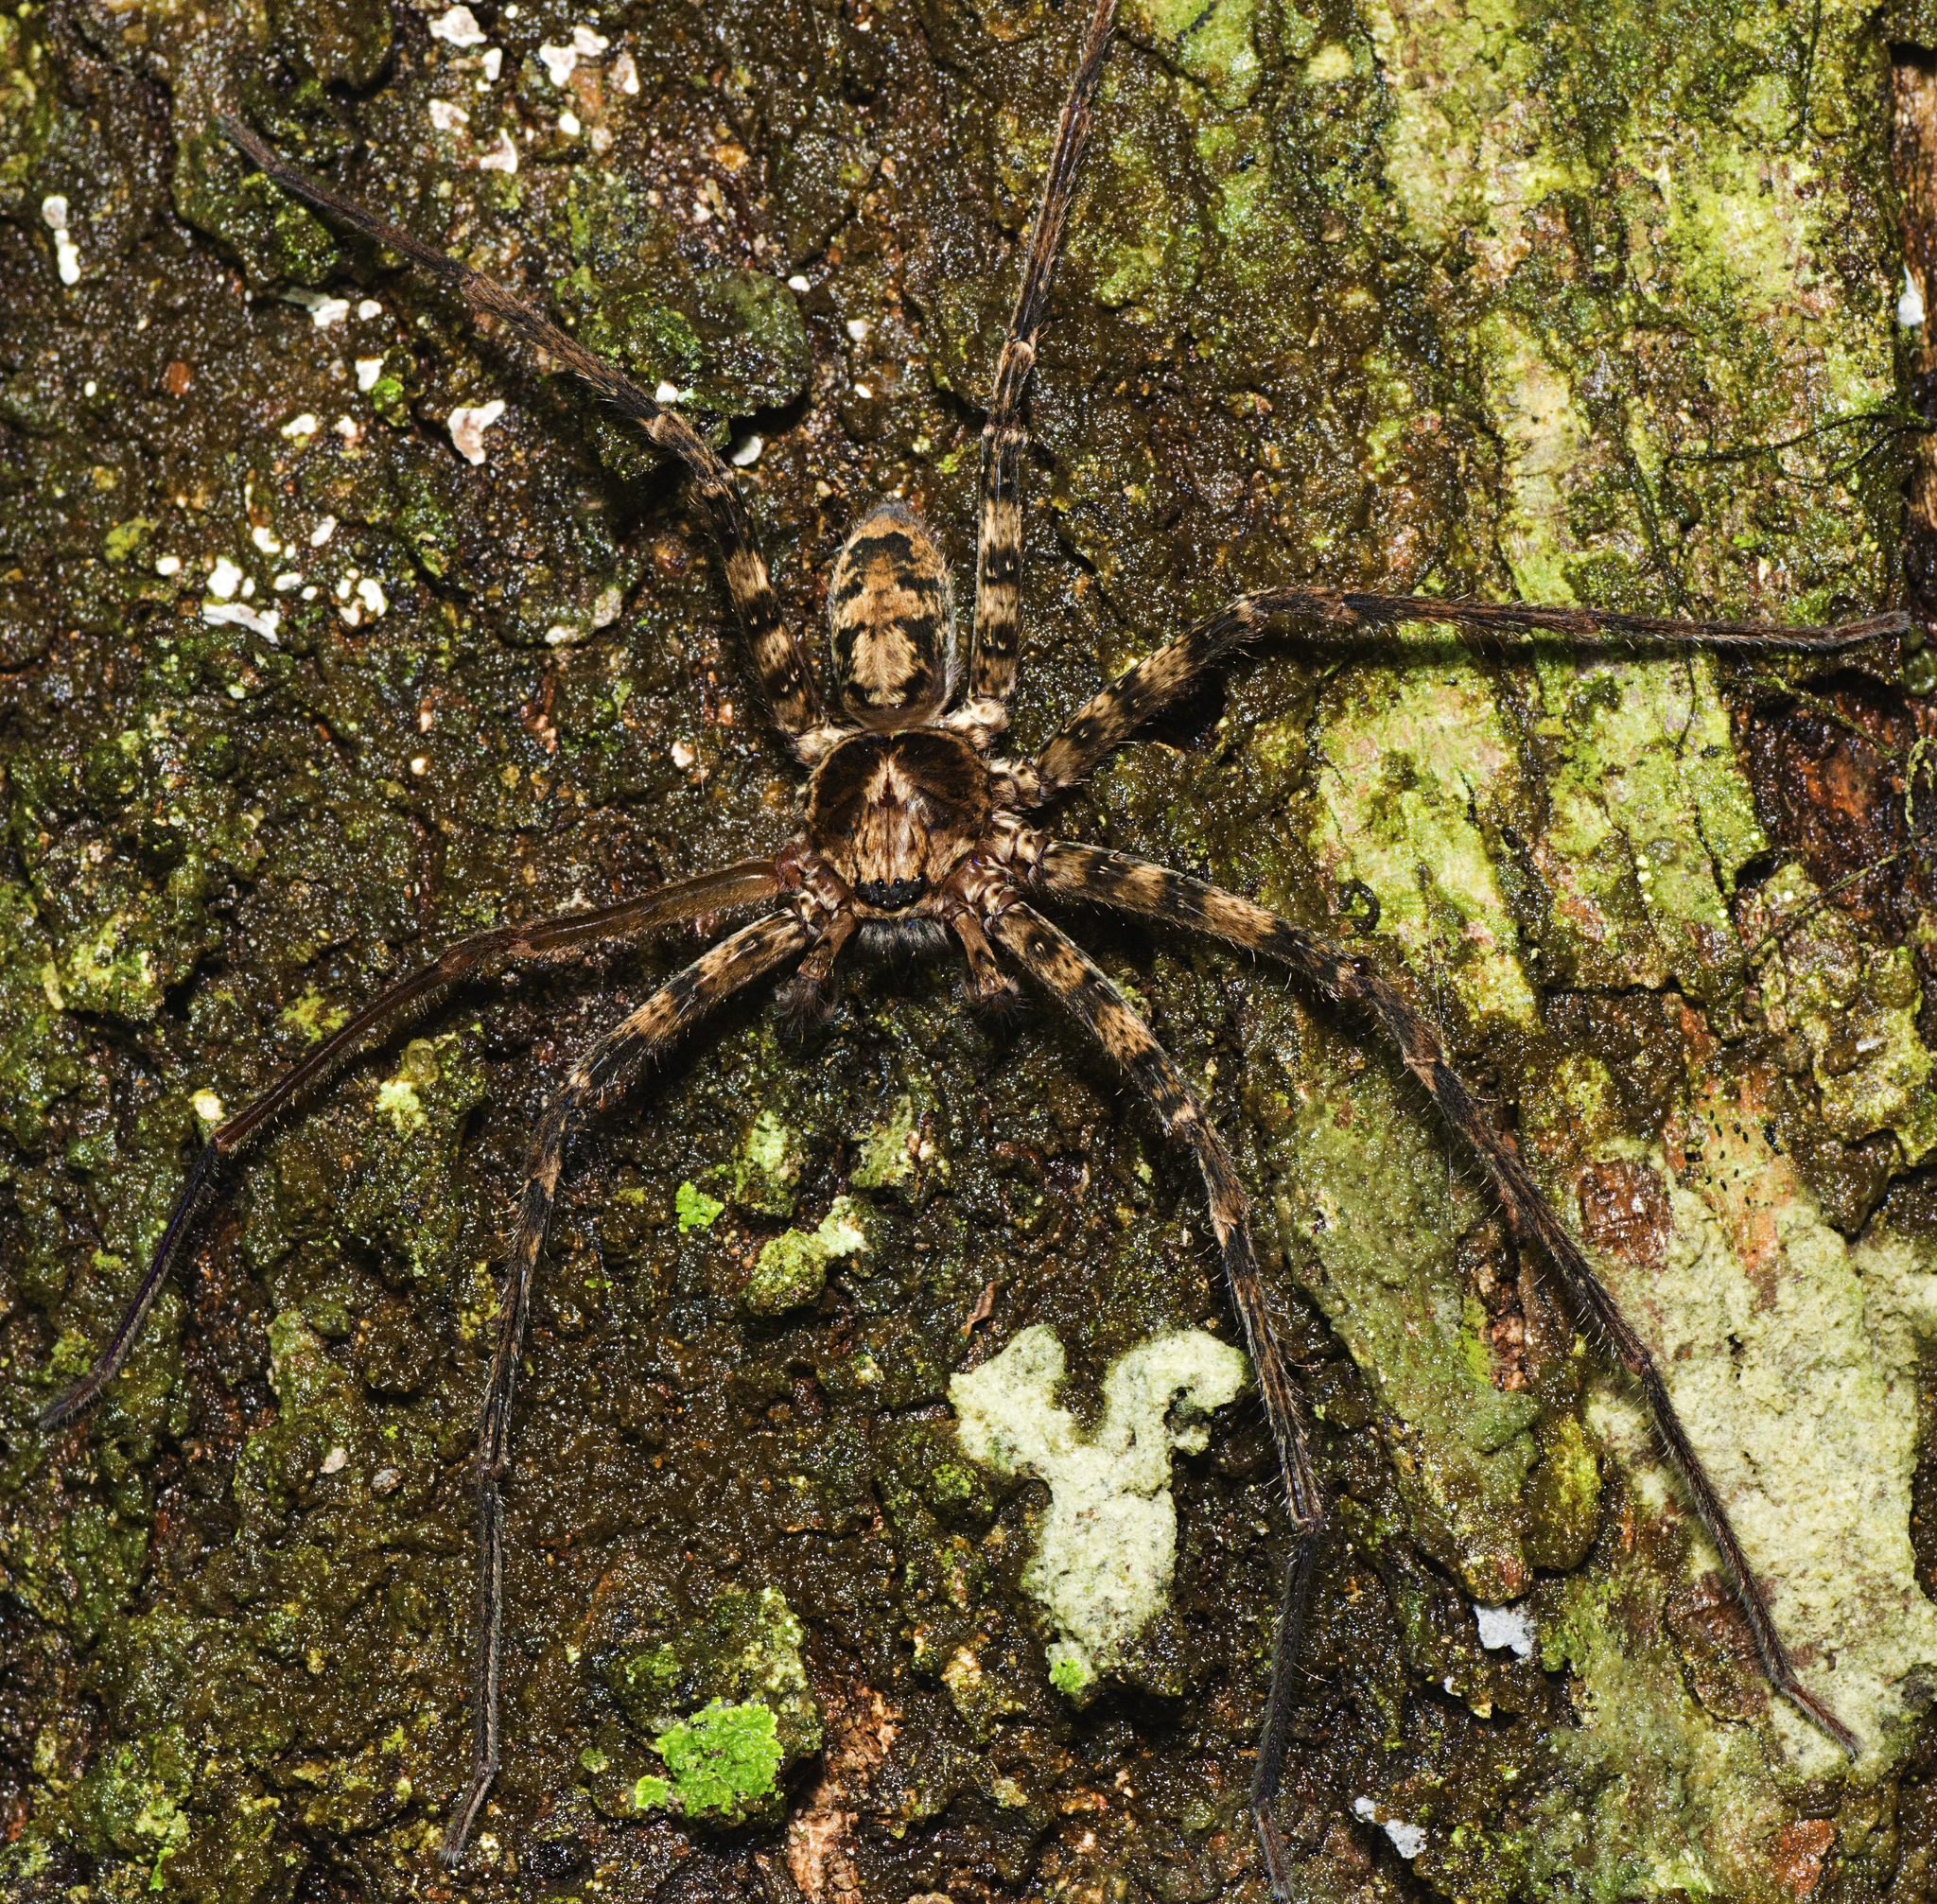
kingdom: Animalia
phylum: Arthropoda
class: Arachnida
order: Araneae
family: Sparassidae
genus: Heteropoda
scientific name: Heteropoda procera
